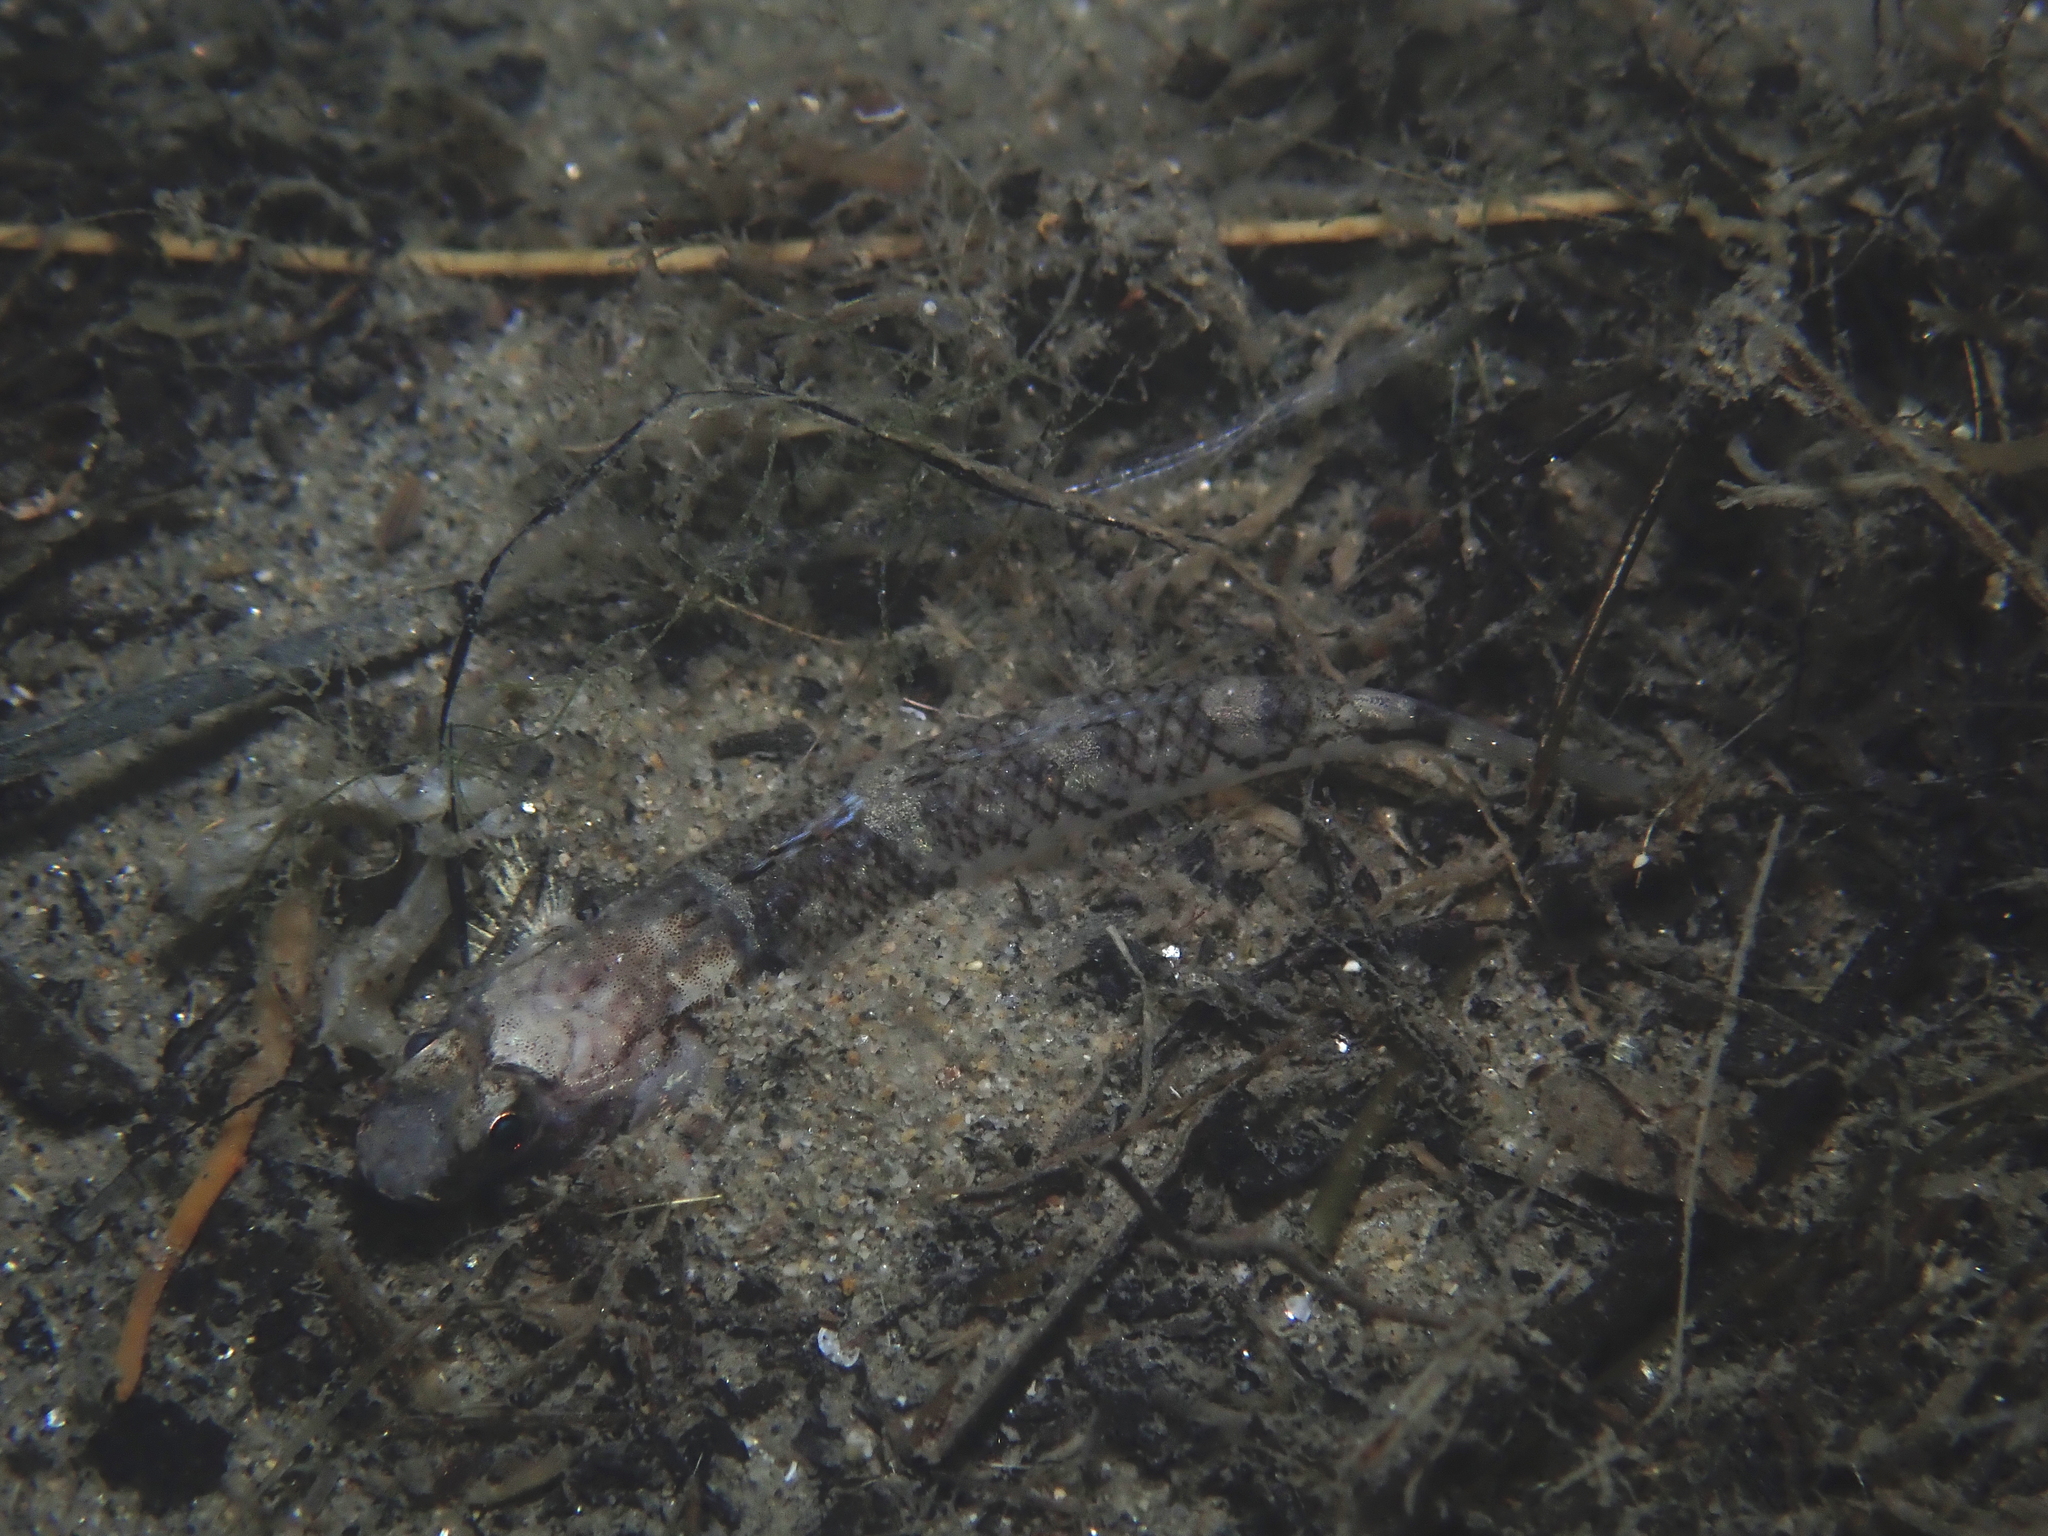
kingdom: Animalia
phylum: Chordata
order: Perciformes
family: Gobiidae
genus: Pomatoschistus
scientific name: Pomatoschistus pictus
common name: Painted goby
